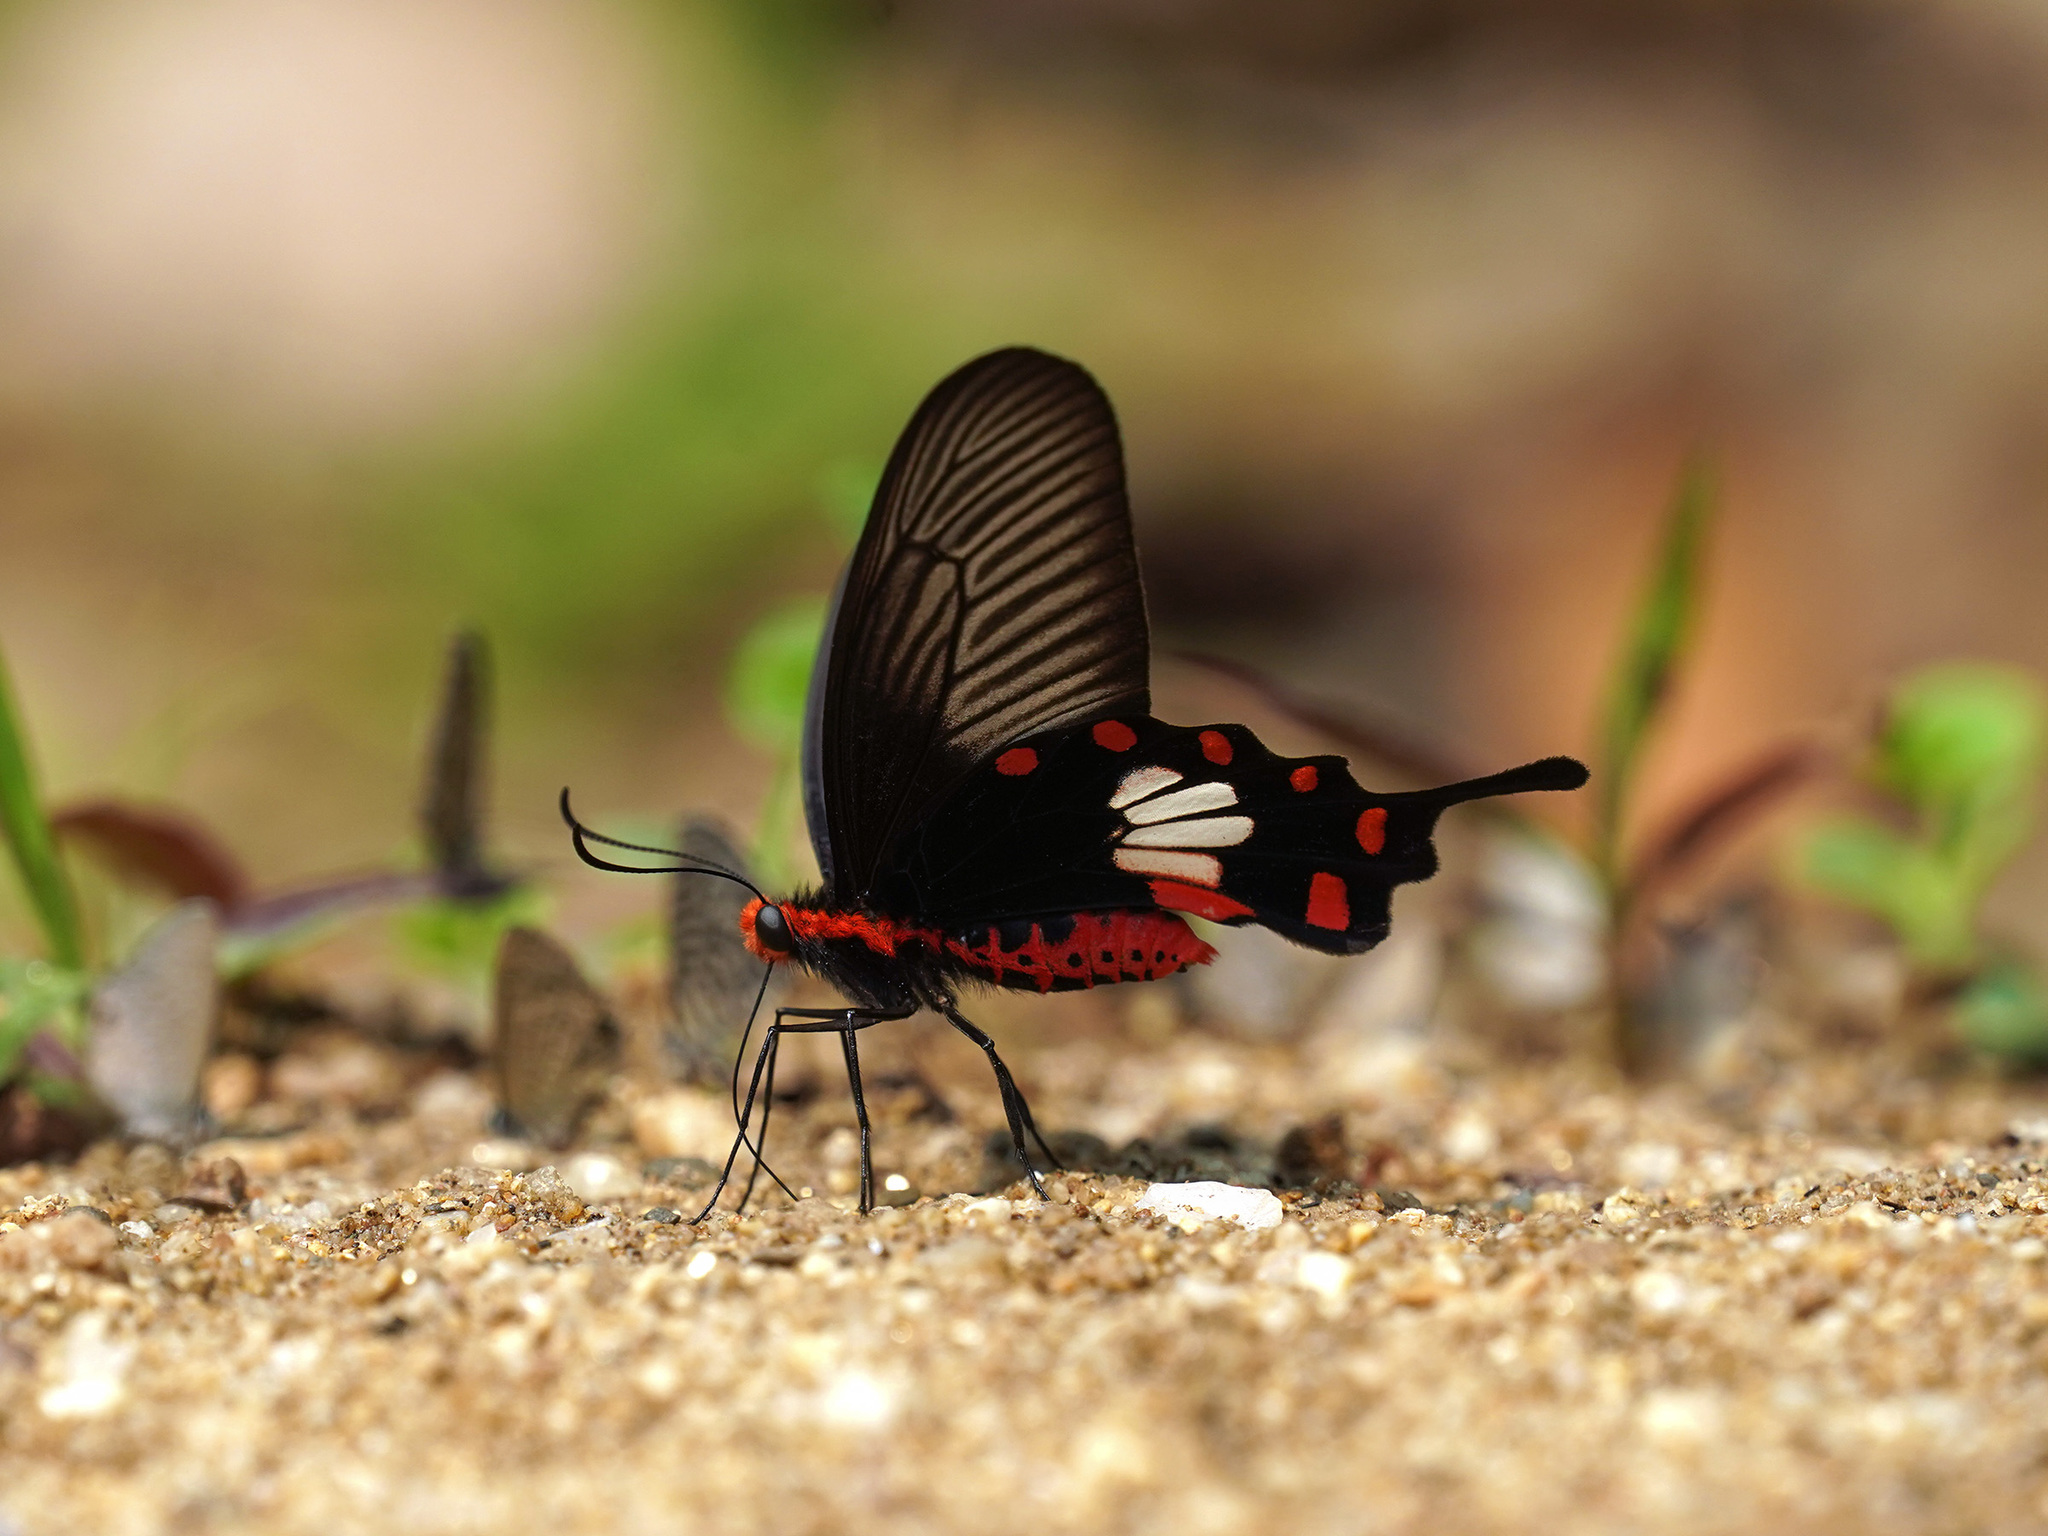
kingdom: Animalia
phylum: Arthropoda
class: Insecta
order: Lepidoptera
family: Papilionidae
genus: Pachliopta
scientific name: Pachliopta aristolochiae
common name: Common rose
